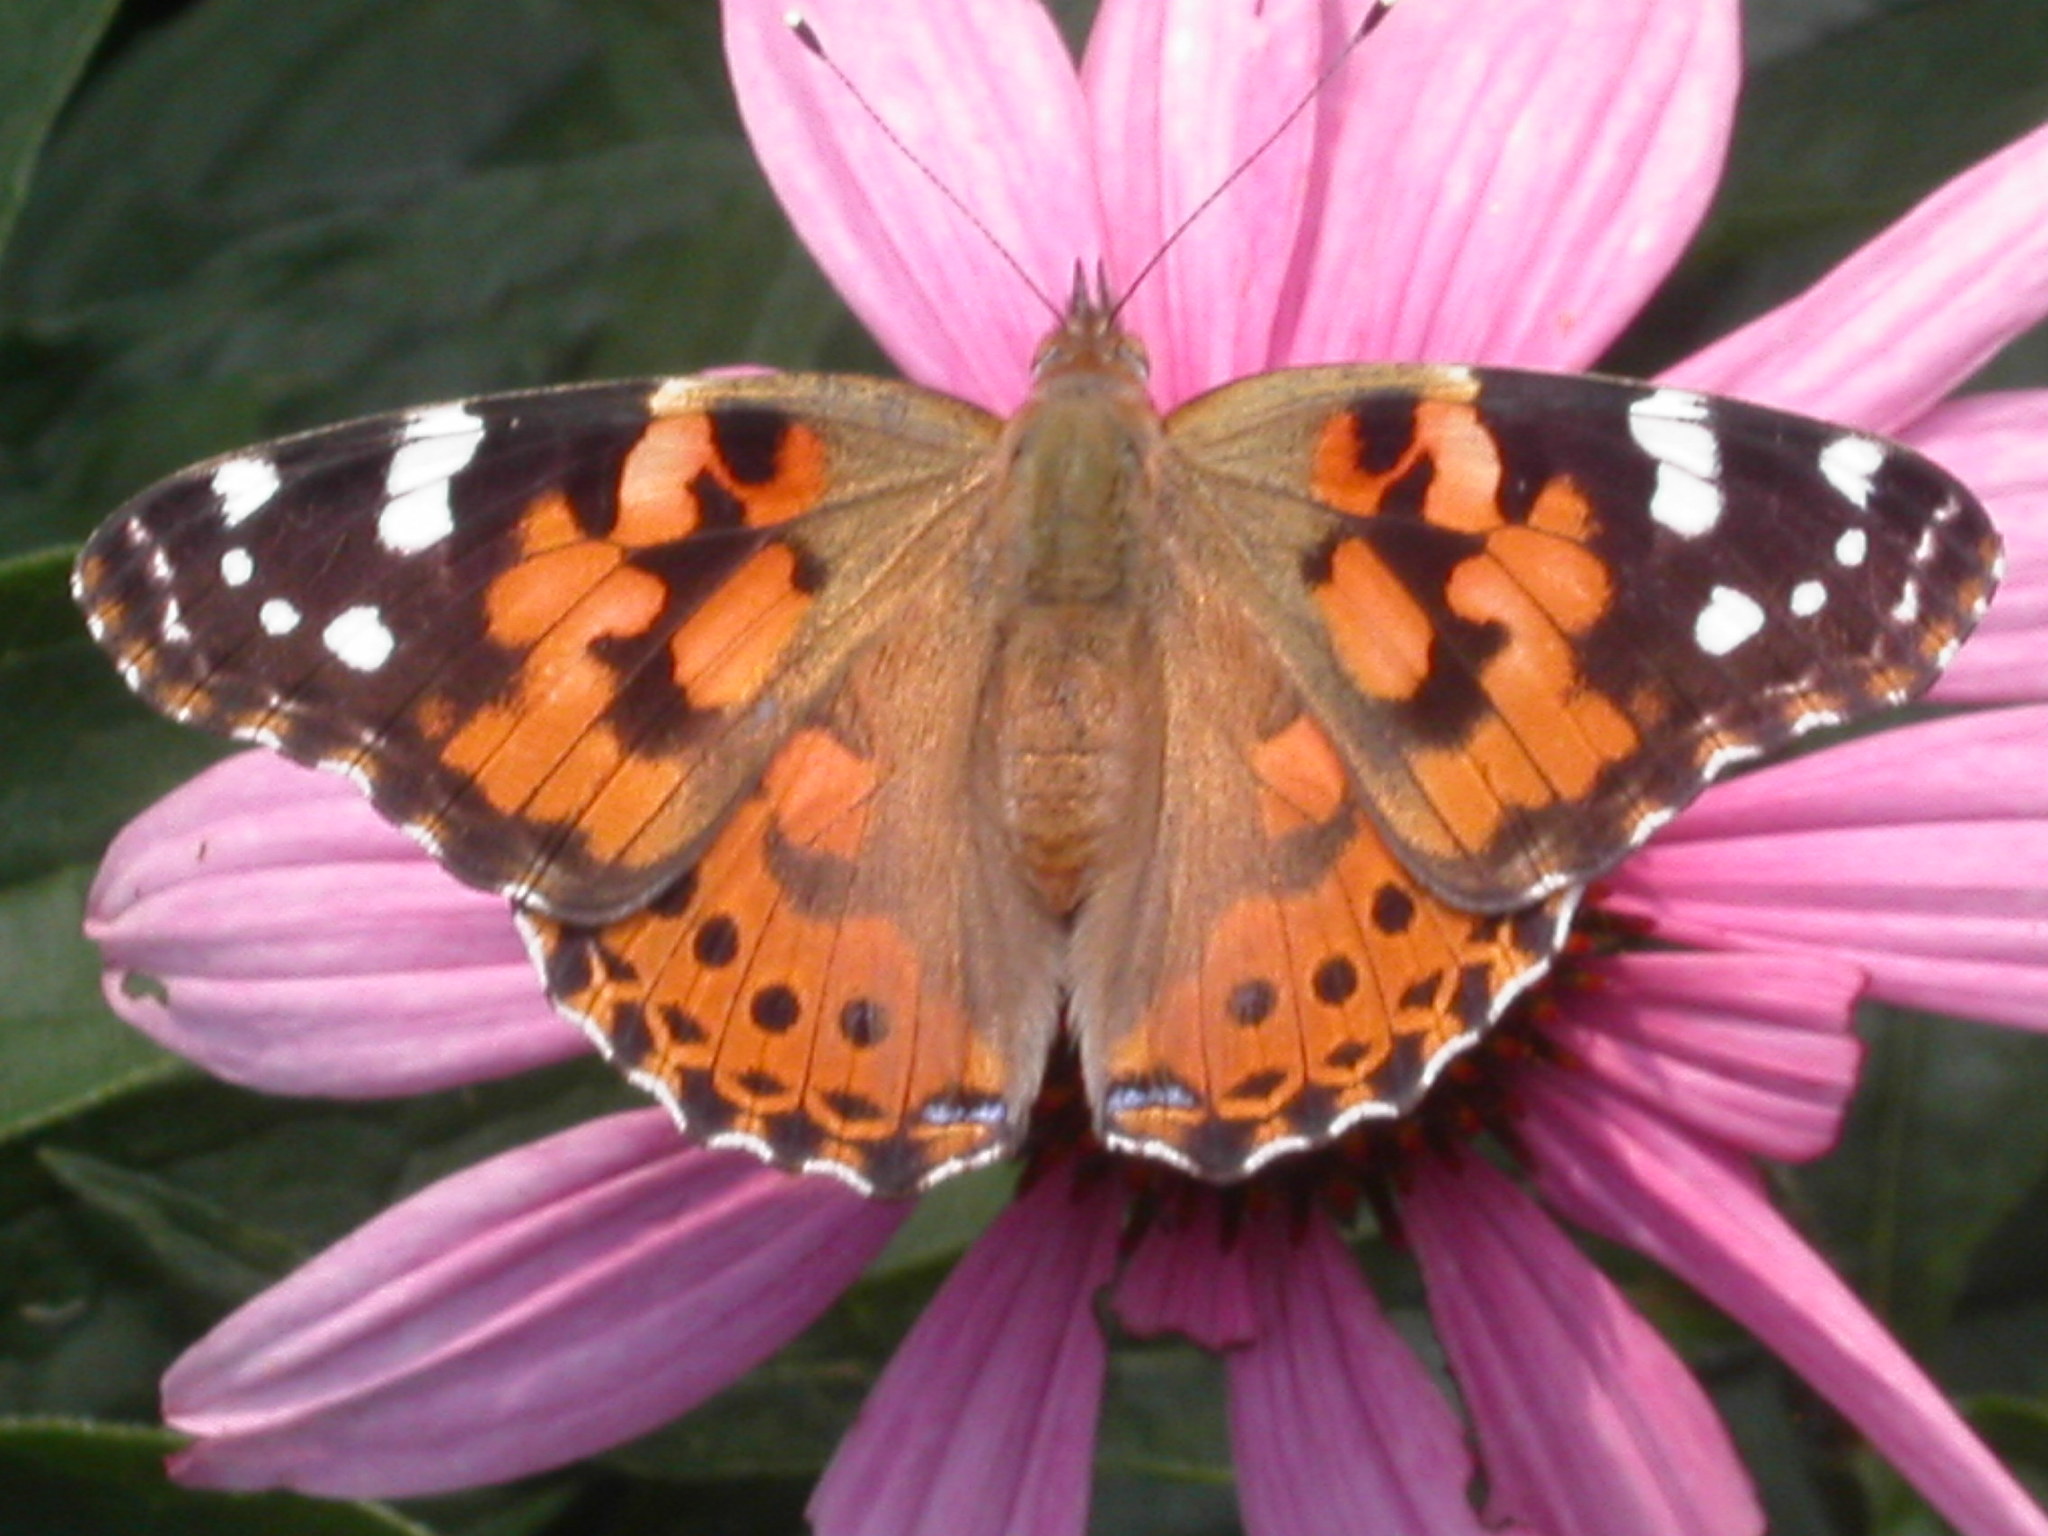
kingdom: Animalia
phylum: Arthropoda
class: Insecta
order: Lepidoptera
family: Nymphalidae
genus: Vanessa
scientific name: Vanessa cardui
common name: Painted lady
